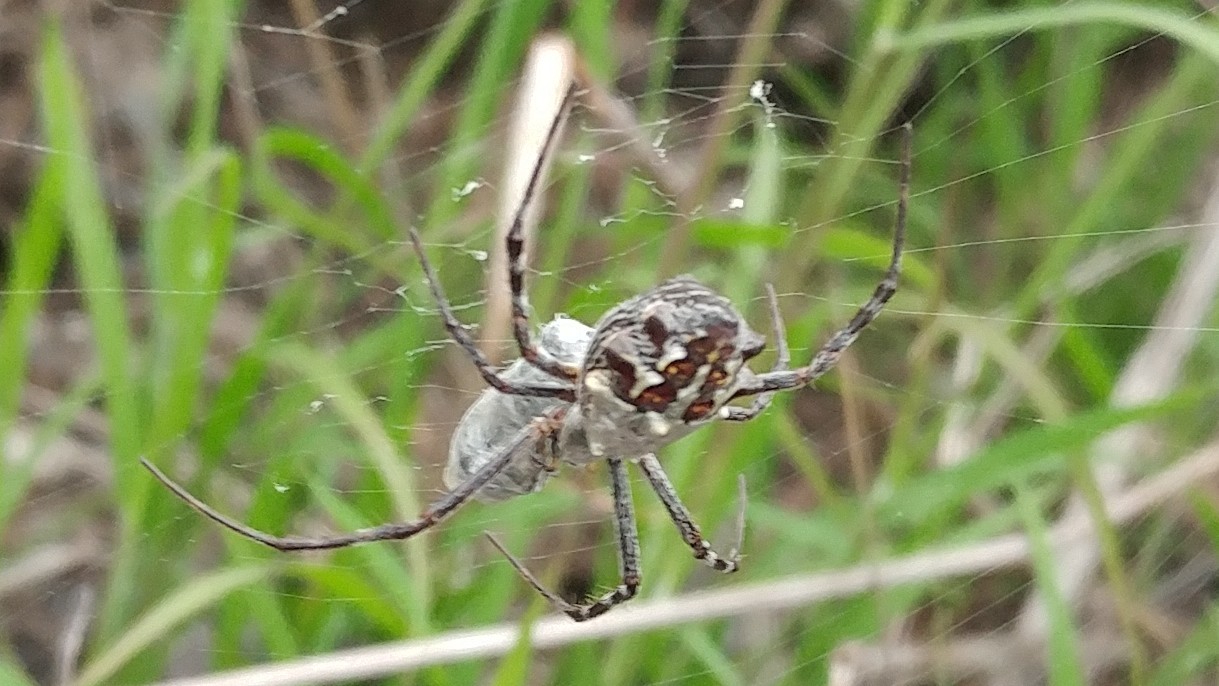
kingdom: Animalia
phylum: Arthropoda
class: Arachnida
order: Araneae
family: Araneidae
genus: Argiope
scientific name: Argiope argentata
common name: Orb weavers
